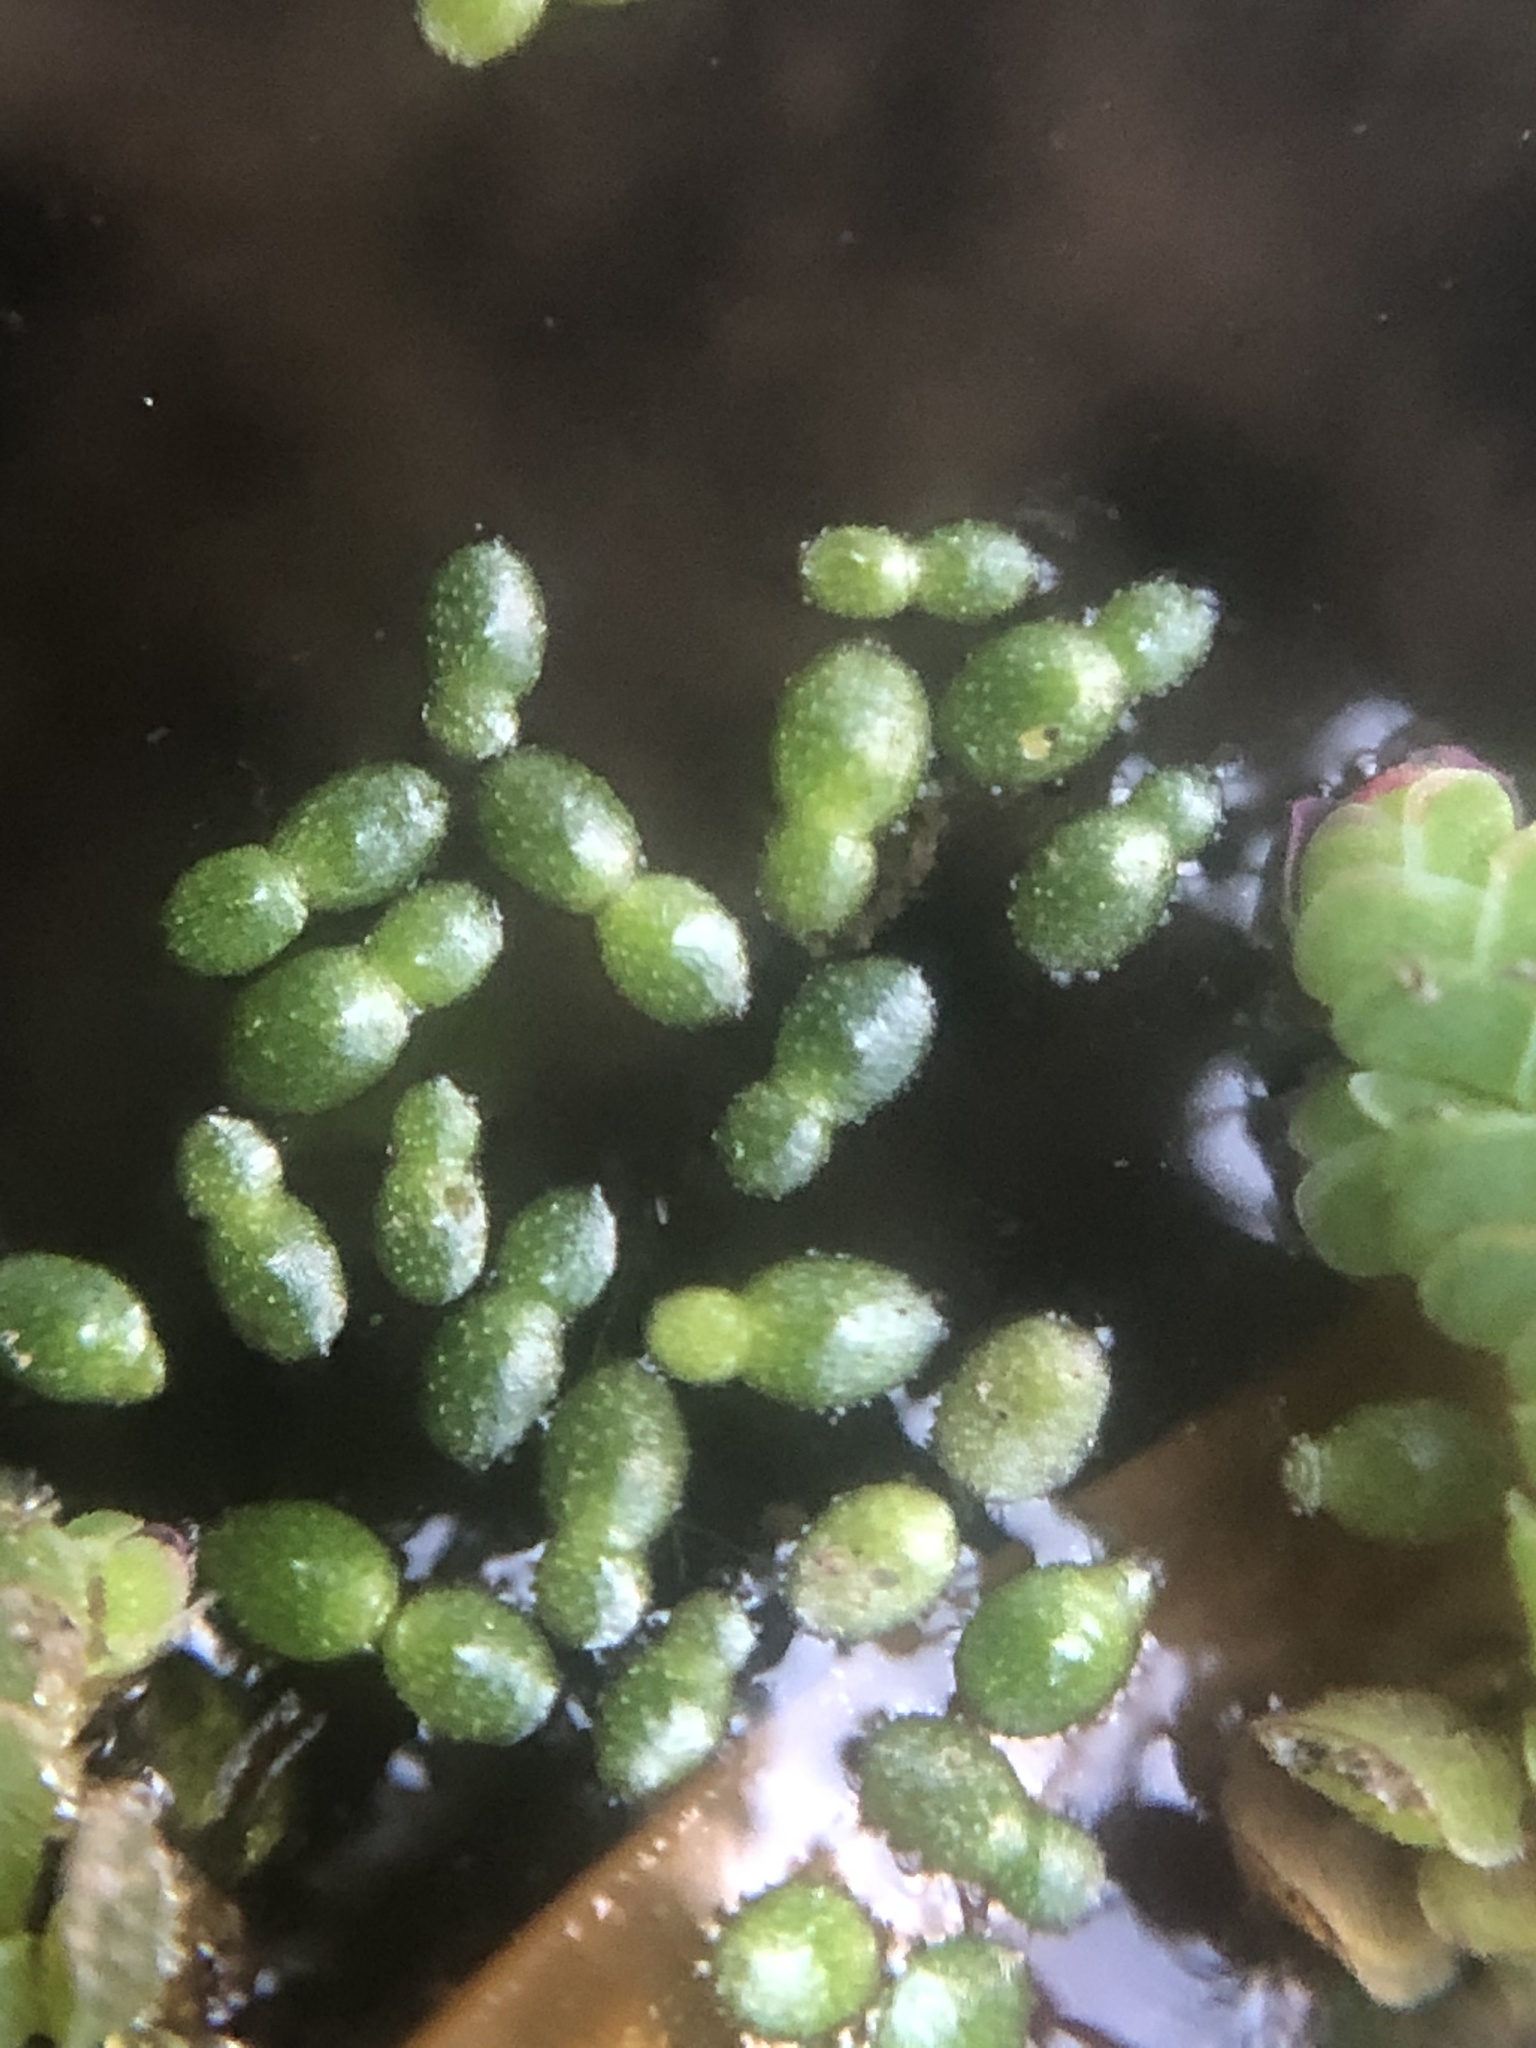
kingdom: Plantae
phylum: Tracheophyta
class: Liliopsida
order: Alismatales
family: Araceae
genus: Wolffia
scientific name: Wolffia brasiliensis
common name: Brazilian watermeal
